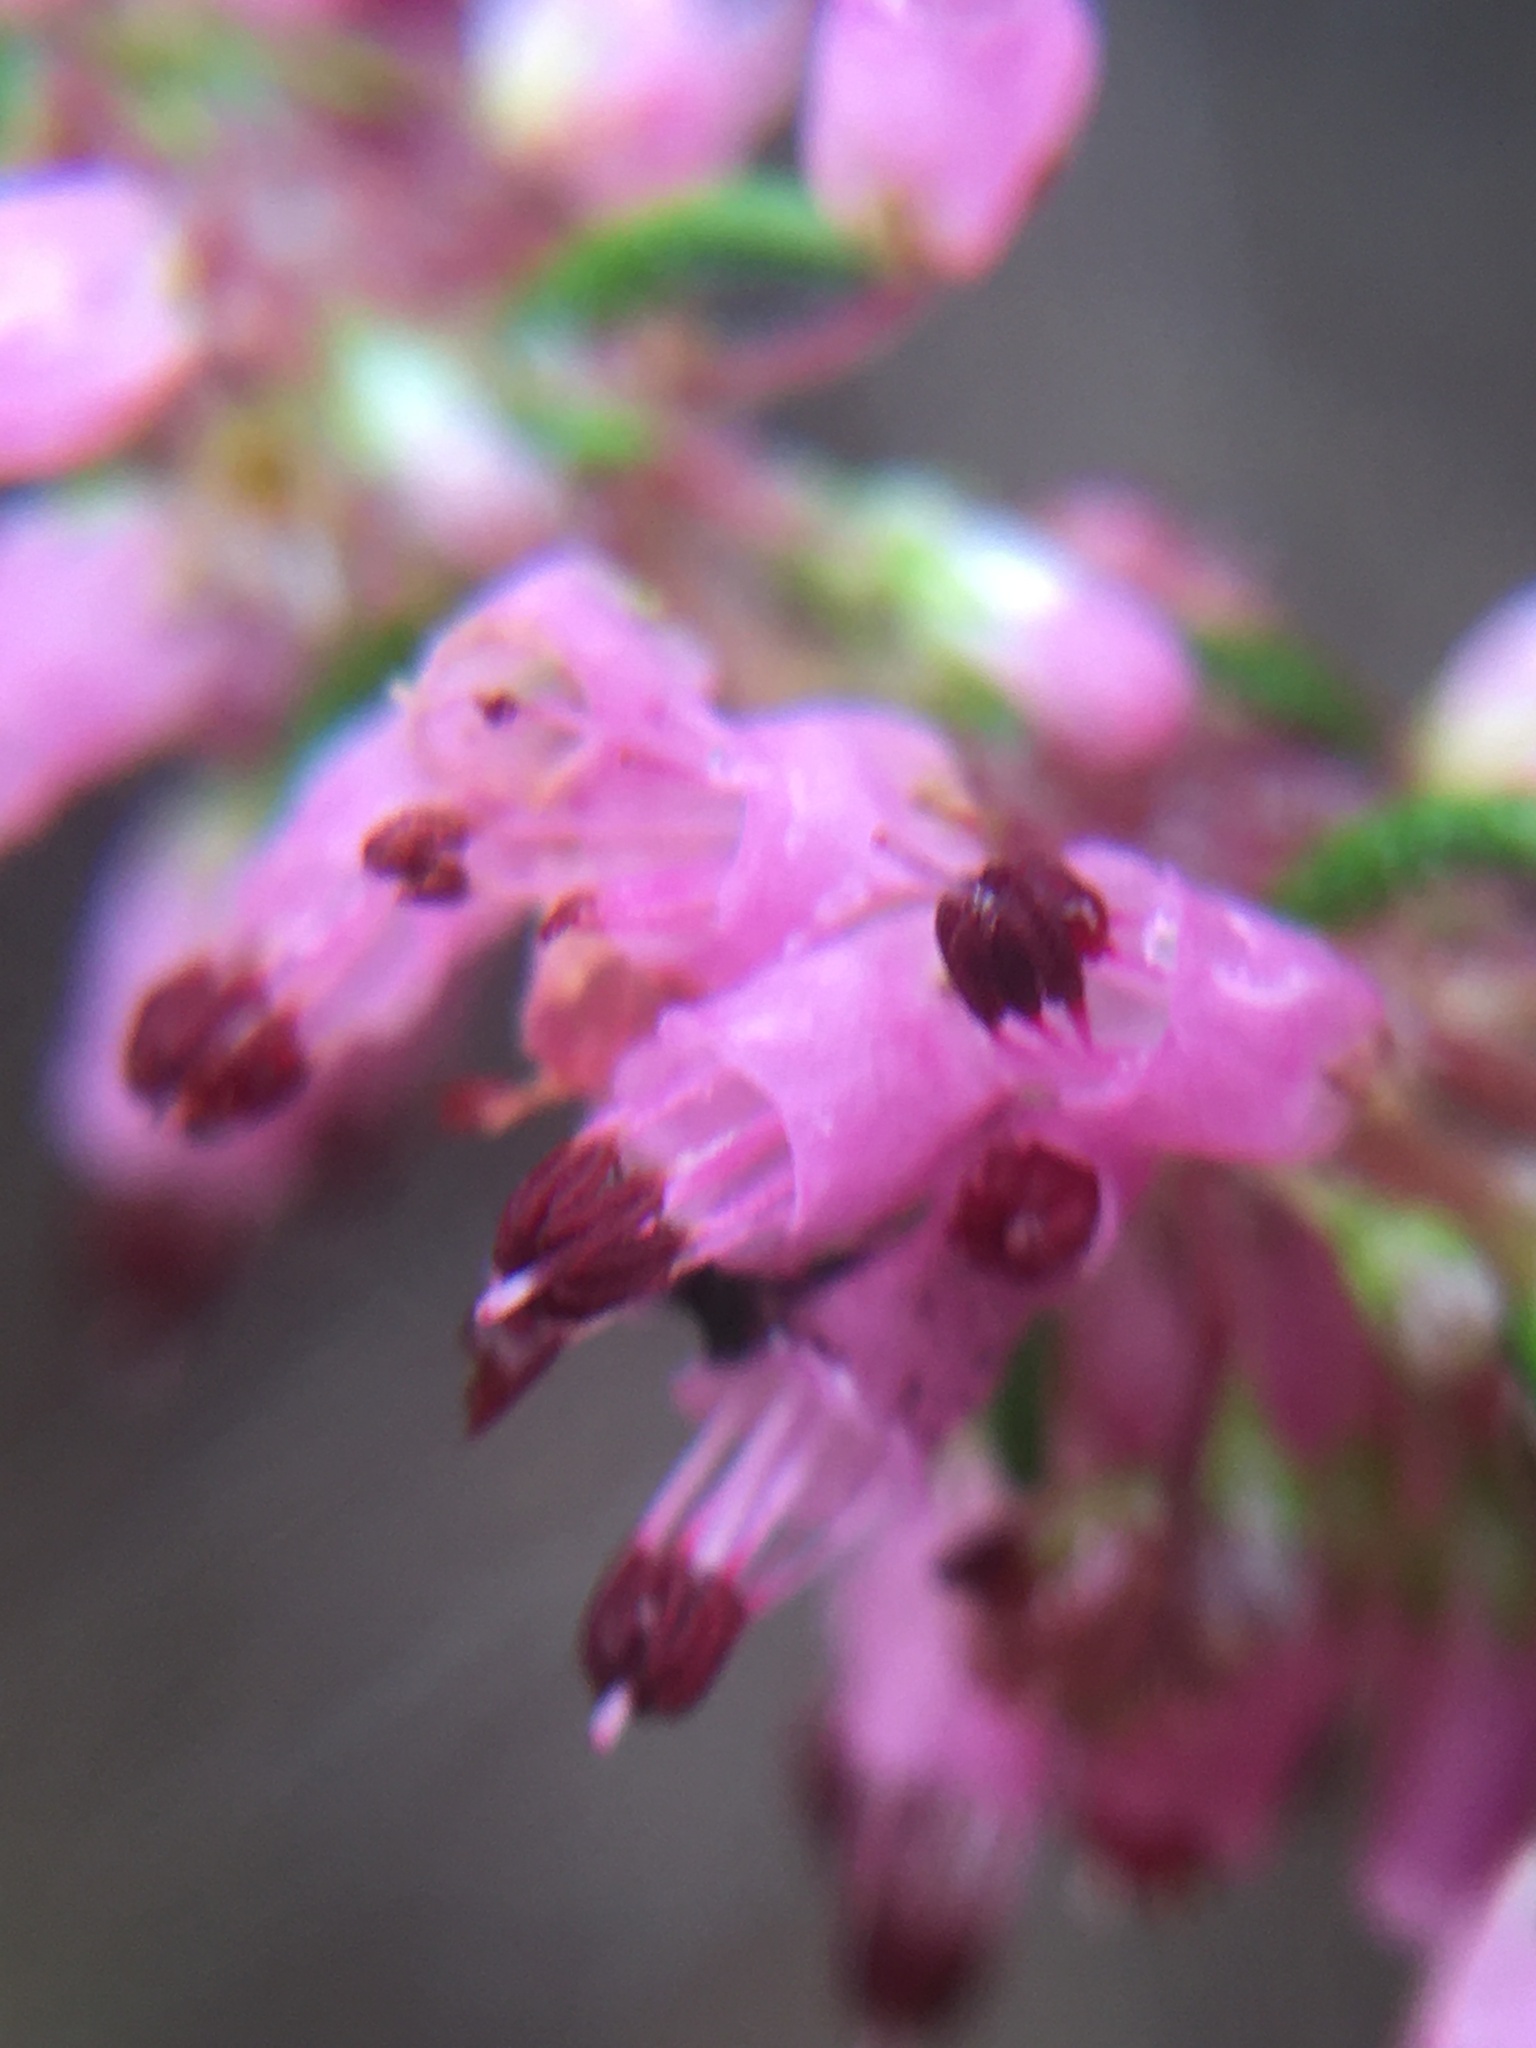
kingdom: Plantae
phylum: Tracheophyta
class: Magnoliopsida
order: Ericales
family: Ericaceae
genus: Erica
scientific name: Erica nudiflora
